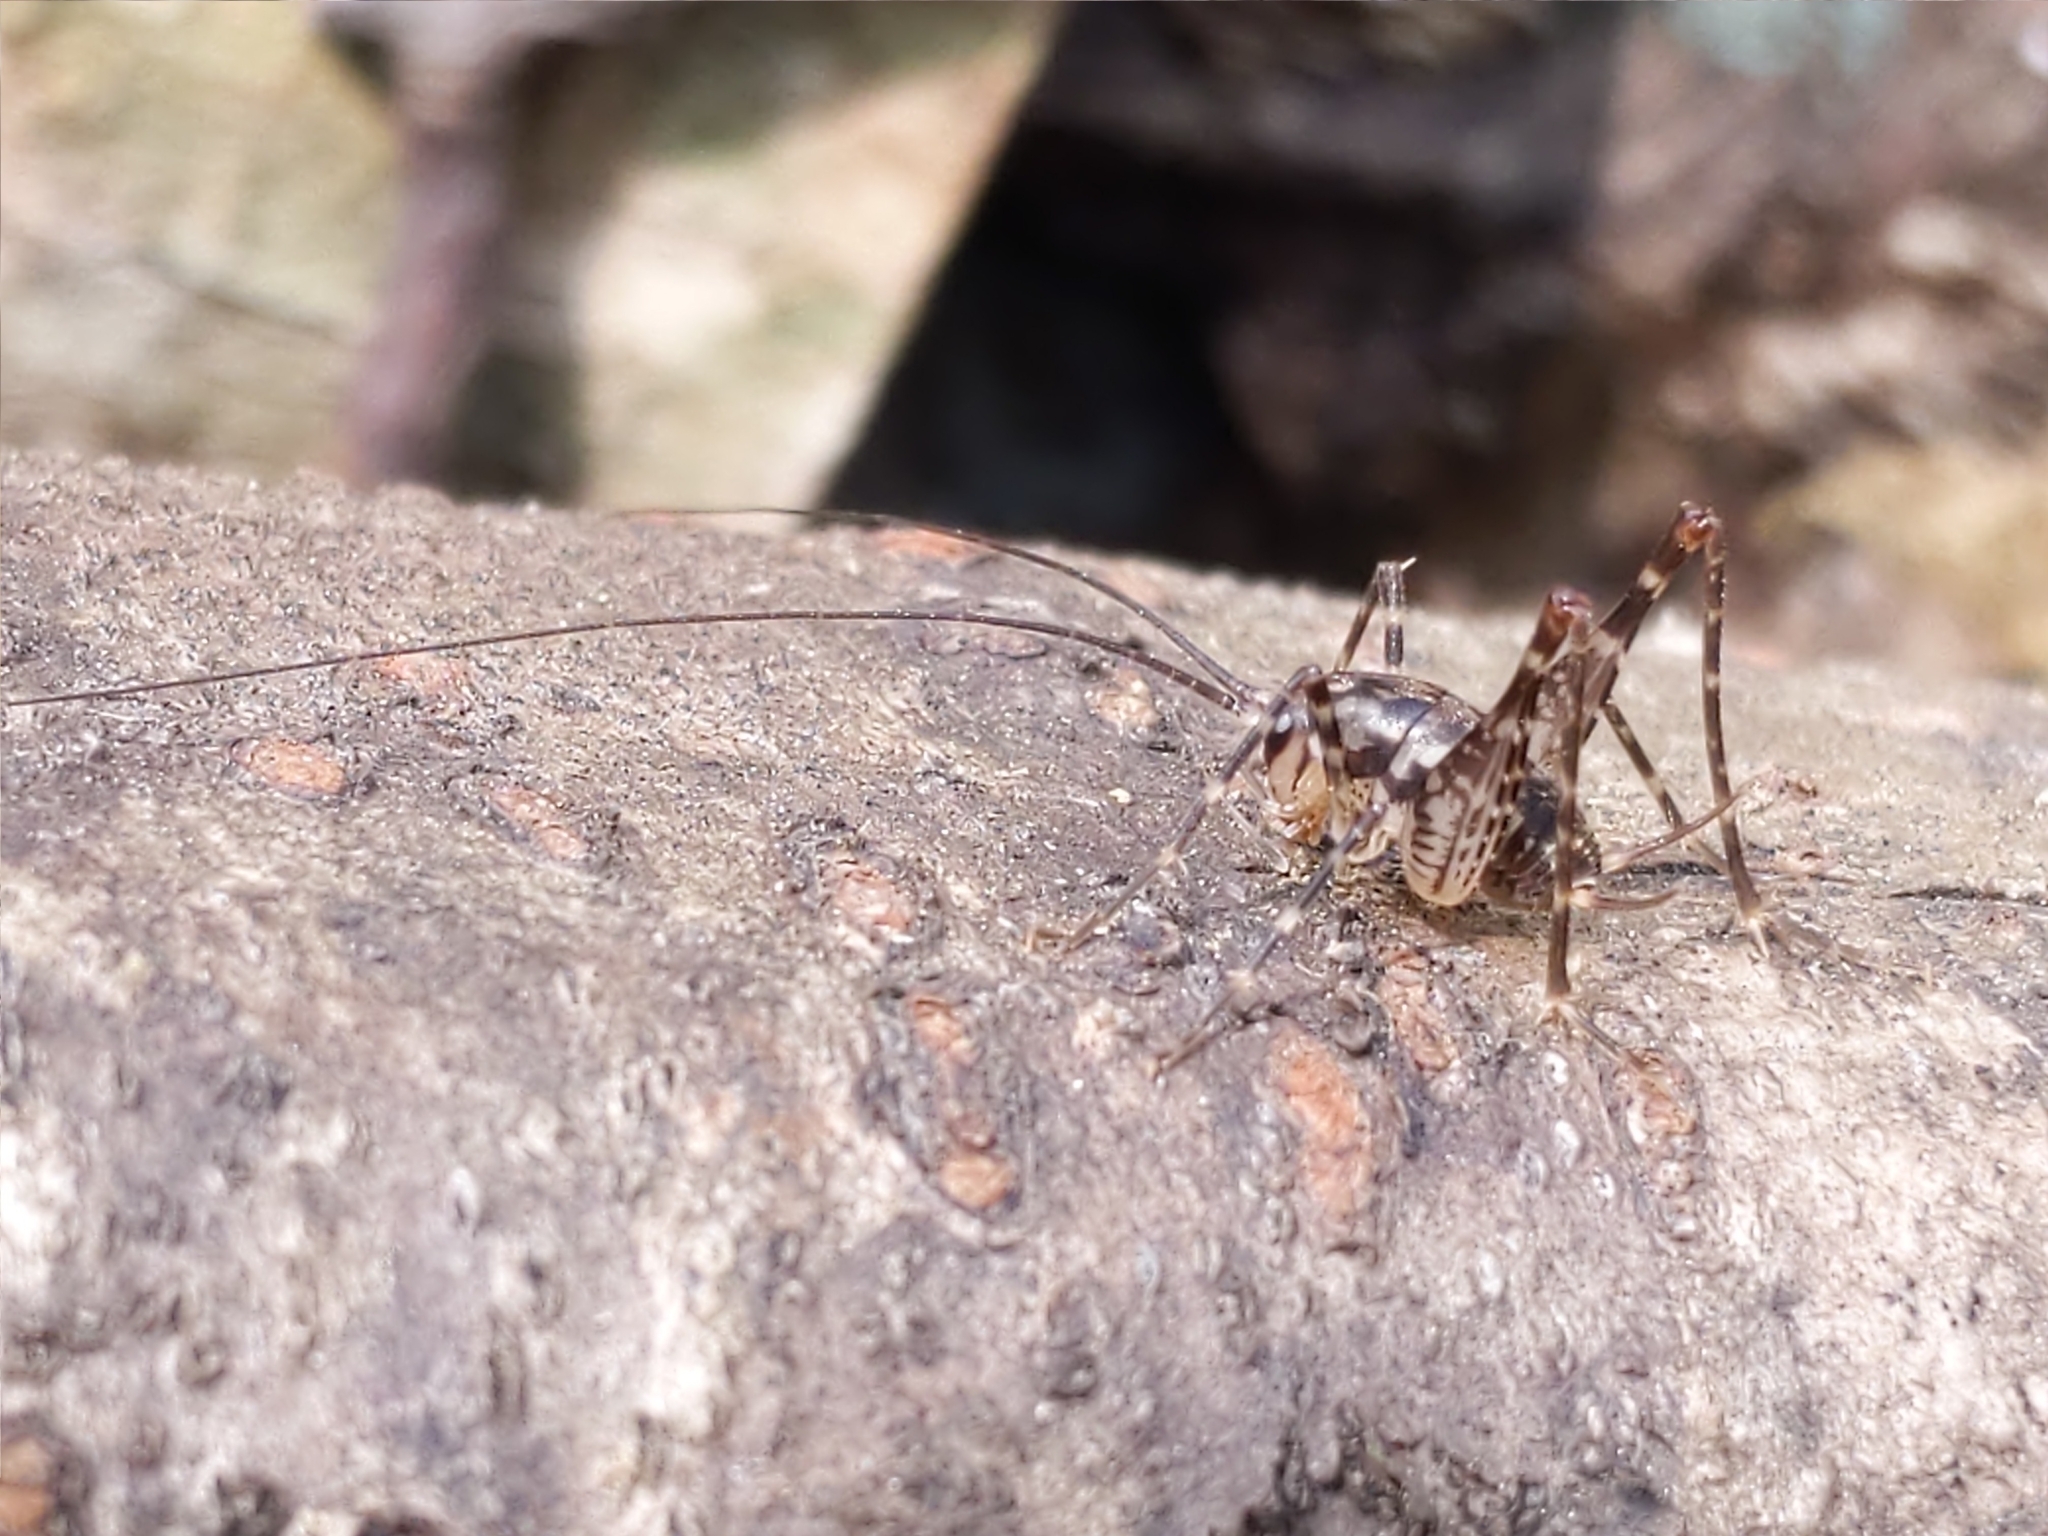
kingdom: Animalia
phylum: Arthropoda
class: Insecta
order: Orthoptera
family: Rhaphidophoridae
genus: Diestrammena
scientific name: Diestrammena japanica
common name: Japanese camel cricket
